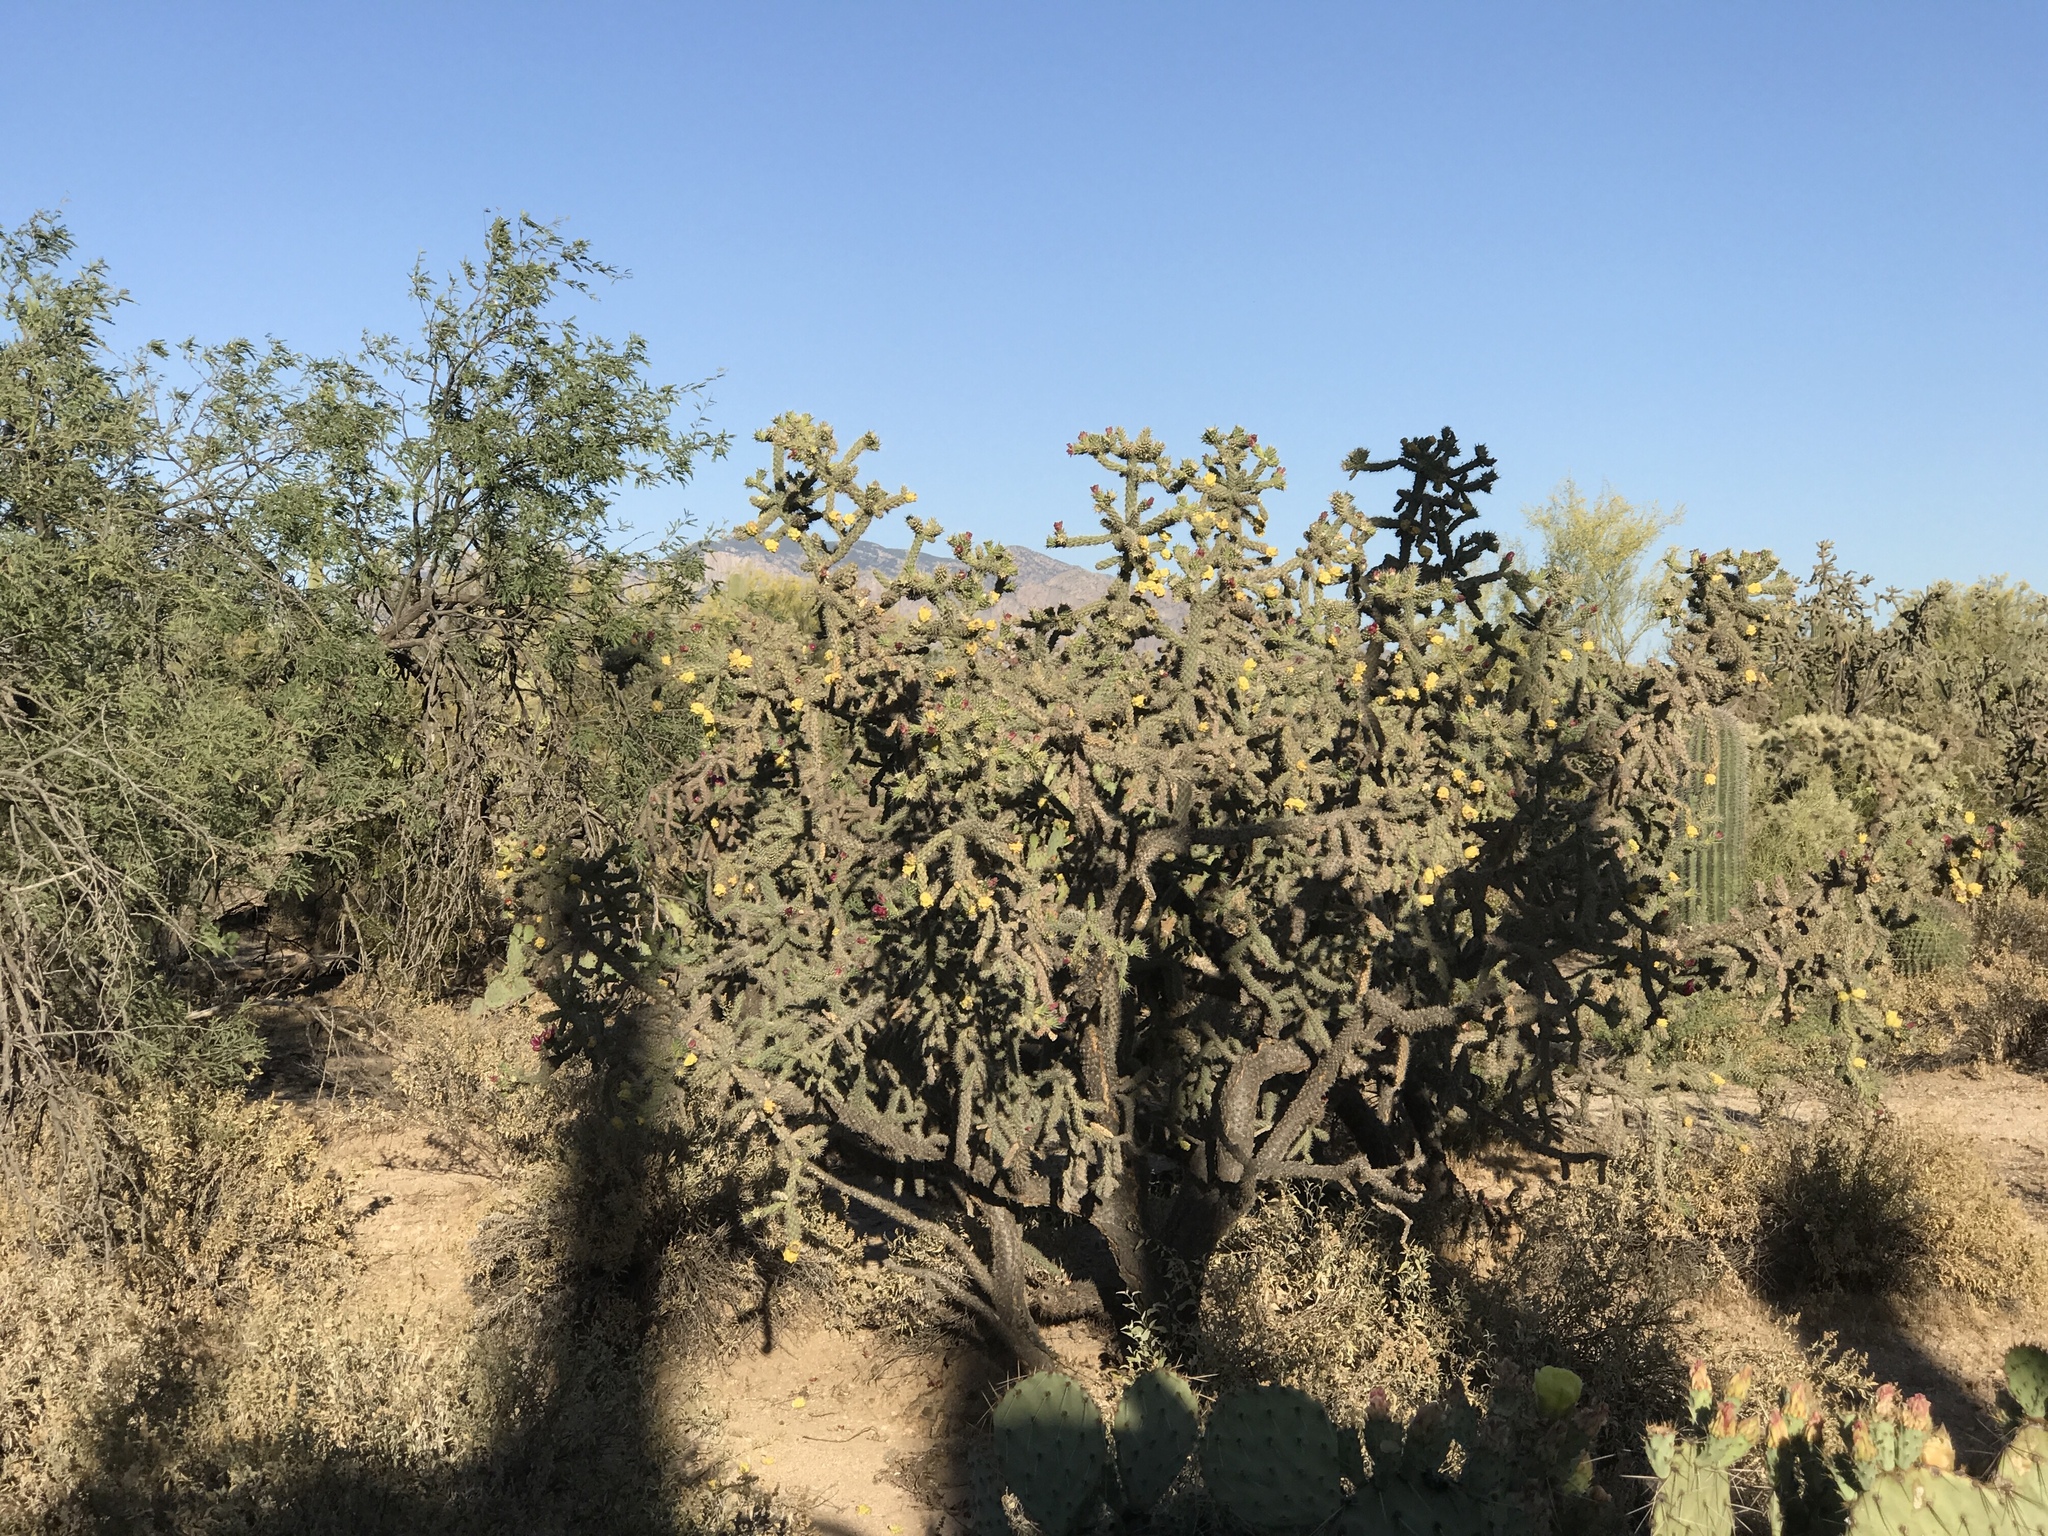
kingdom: Plantae
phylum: Tracheophyta
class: Magnoliopsida
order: Caryophyllales
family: Cactaceae
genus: Cylindropuntia
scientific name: Cylindropuntia kelvinensis
